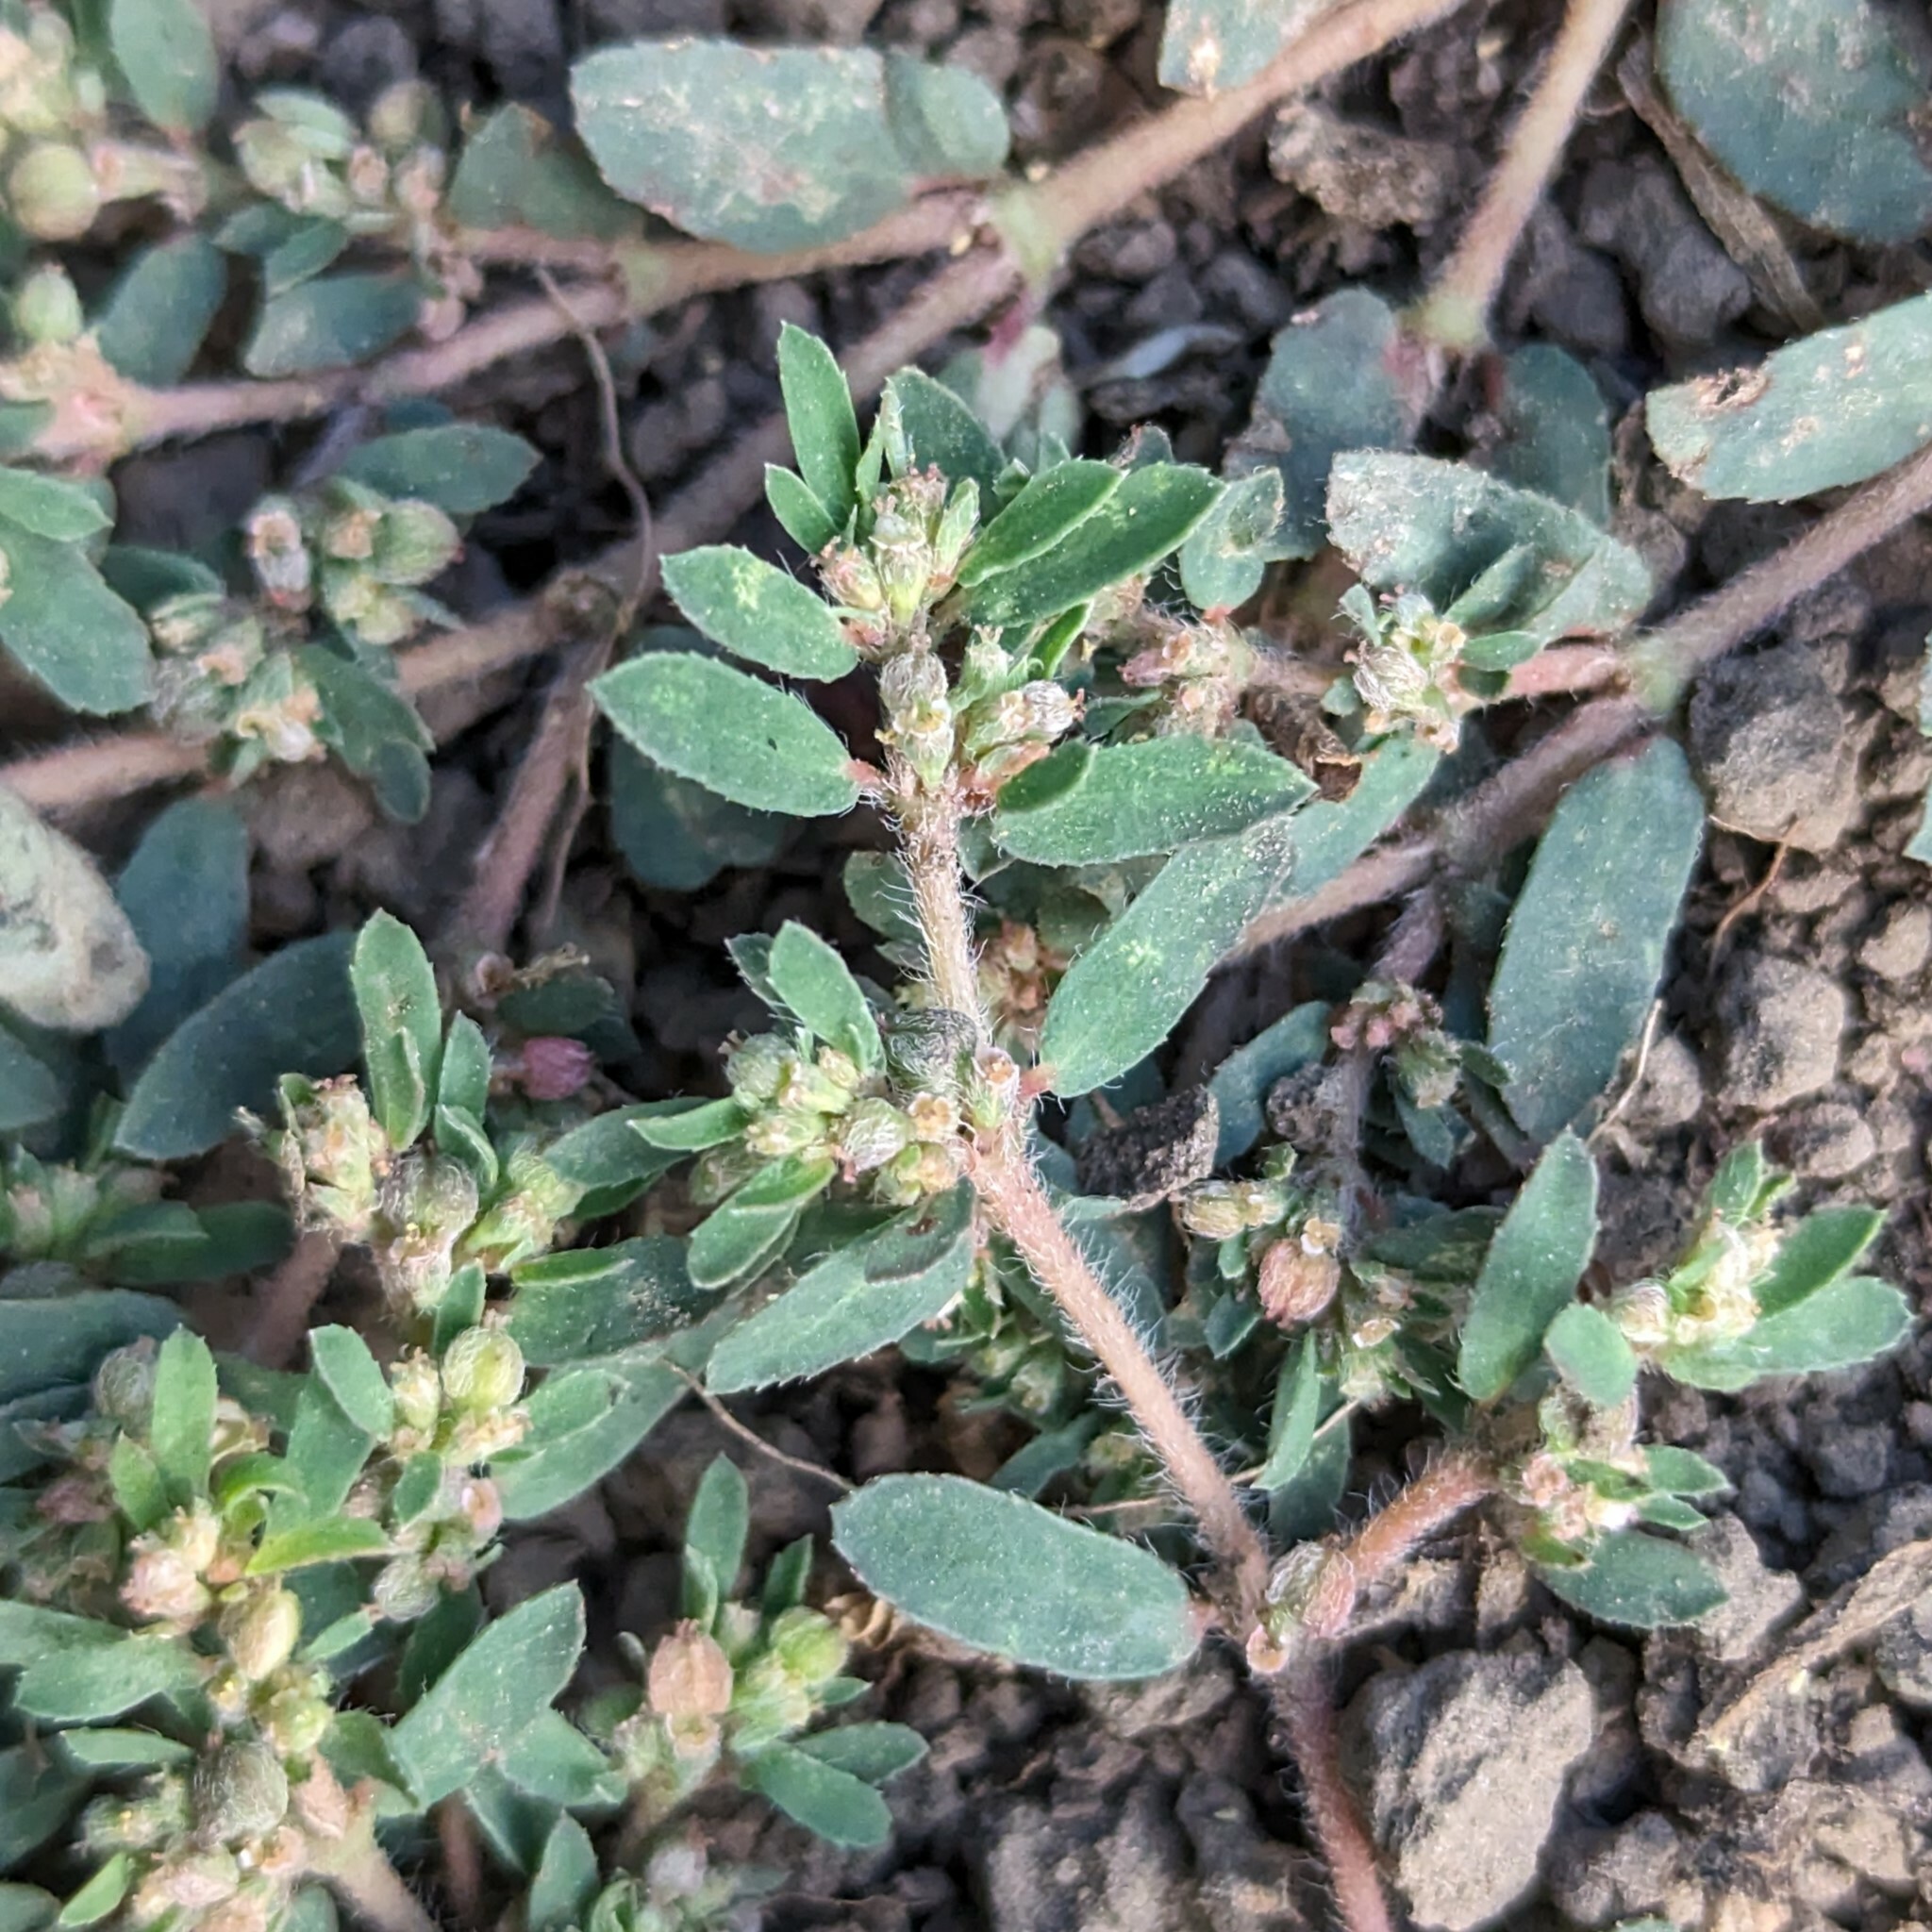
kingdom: Plantae
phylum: Tracheophyta
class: Magnoliopsida
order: Malpighiales
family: Euphorbiaceae
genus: Euphorbia
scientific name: Euphorbia maculata
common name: Spotted spurge
